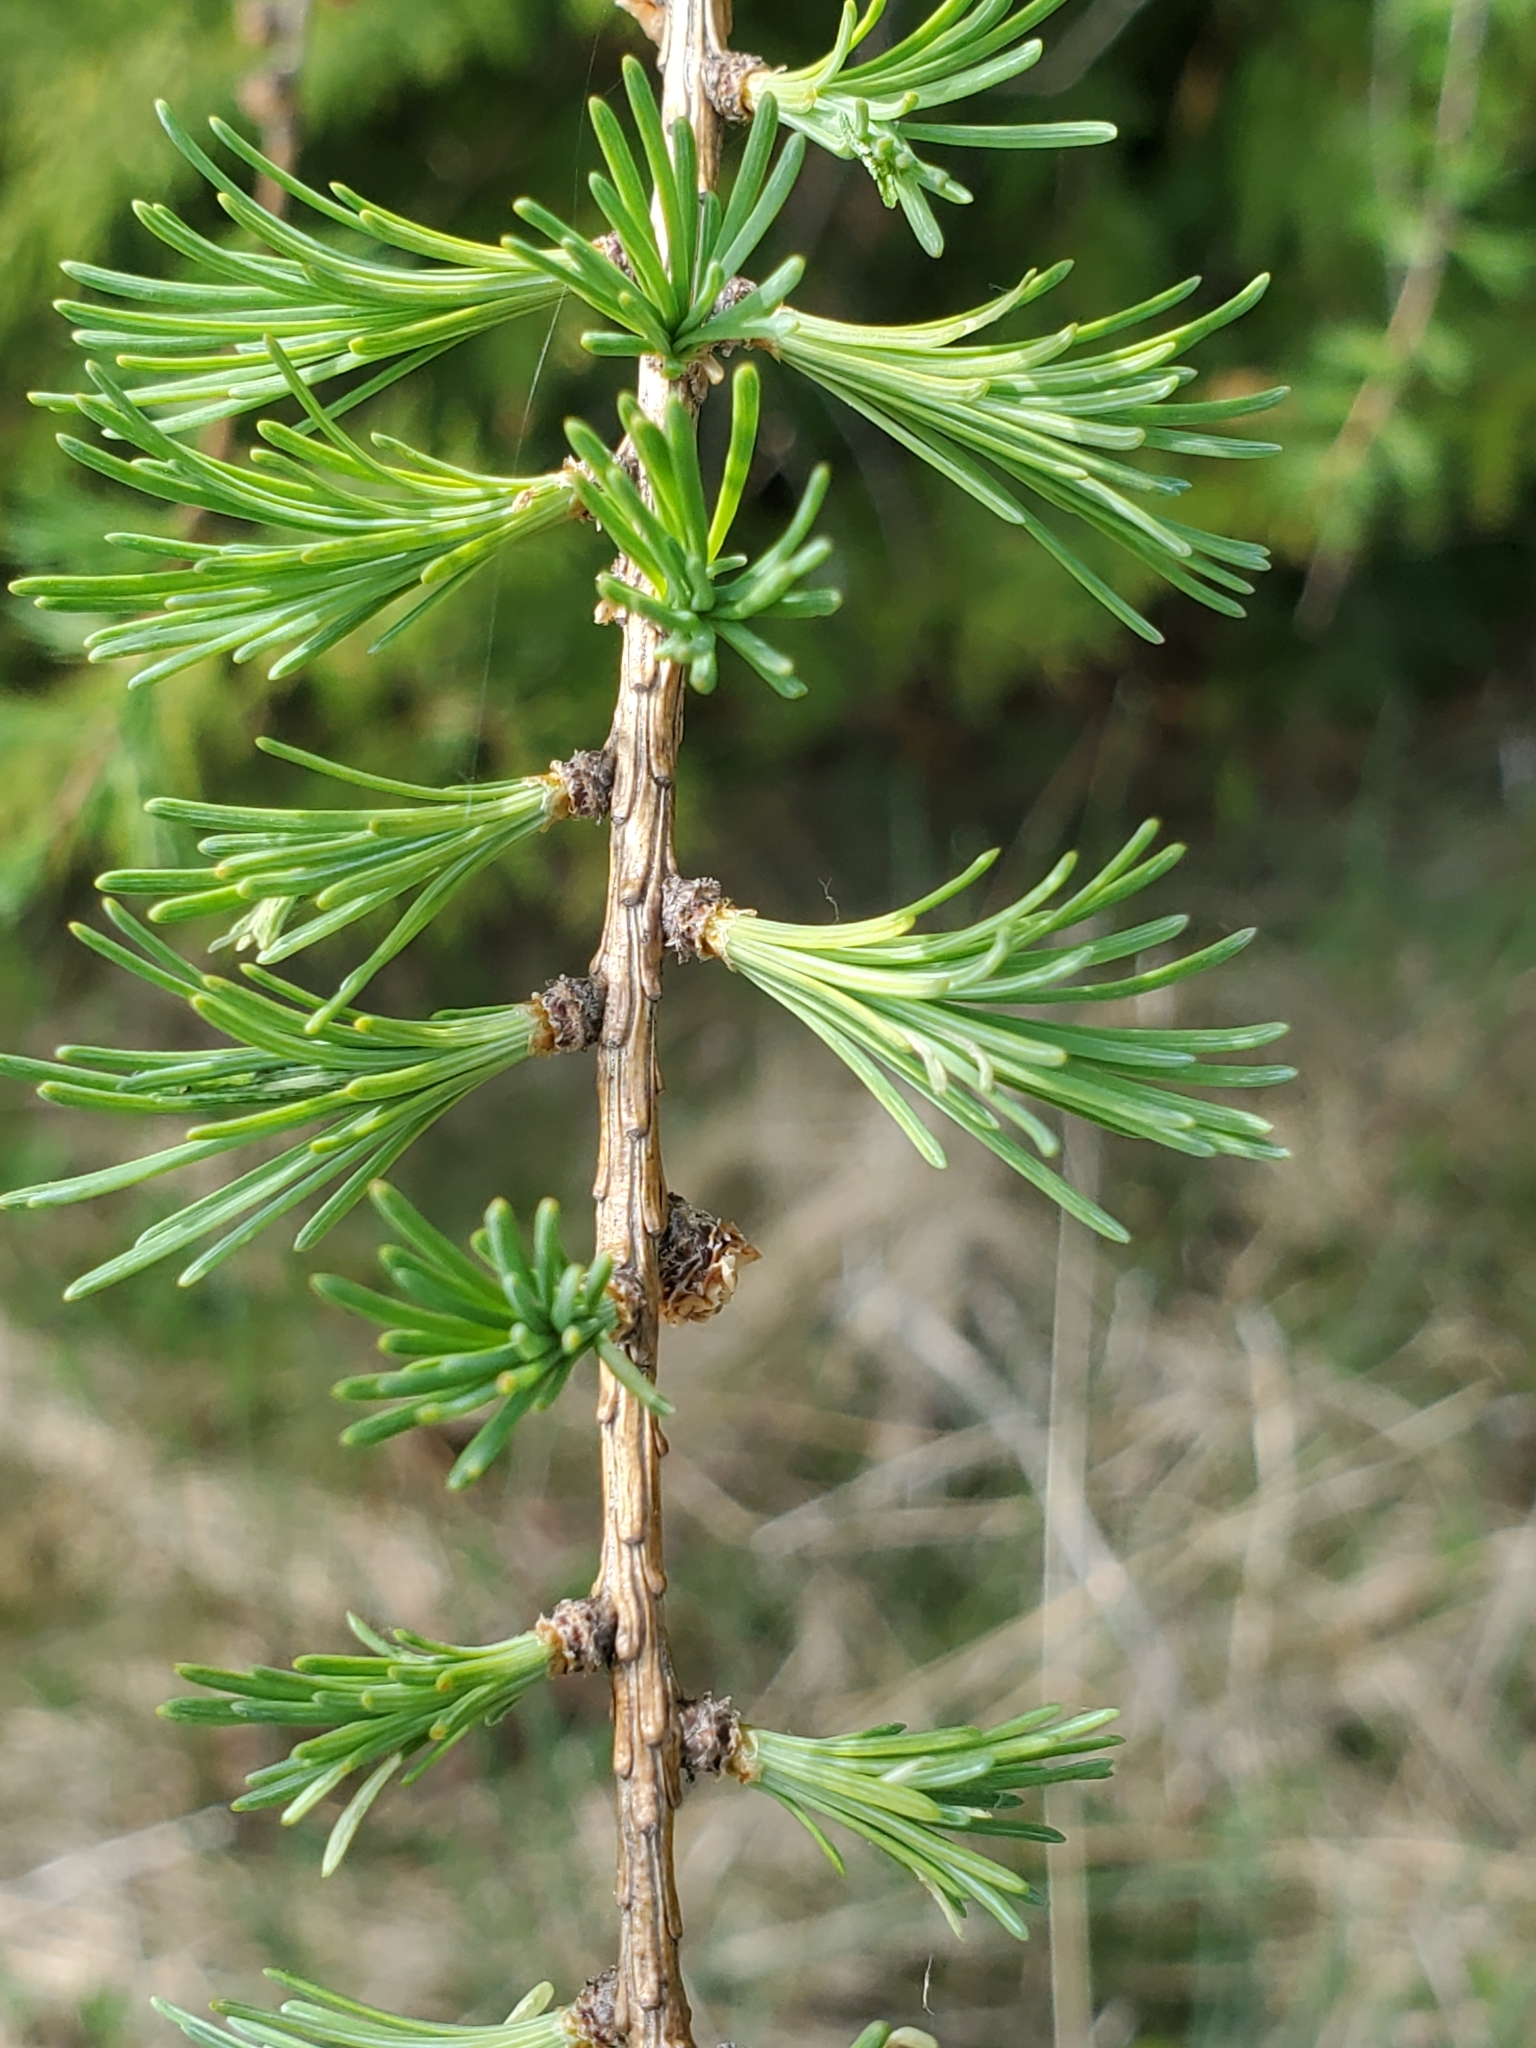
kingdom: Plantae
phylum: Tracheophyta
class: Pinopsida
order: Pinales
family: Pinaceae
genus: Larix
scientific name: Larix laricina
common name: American larch
